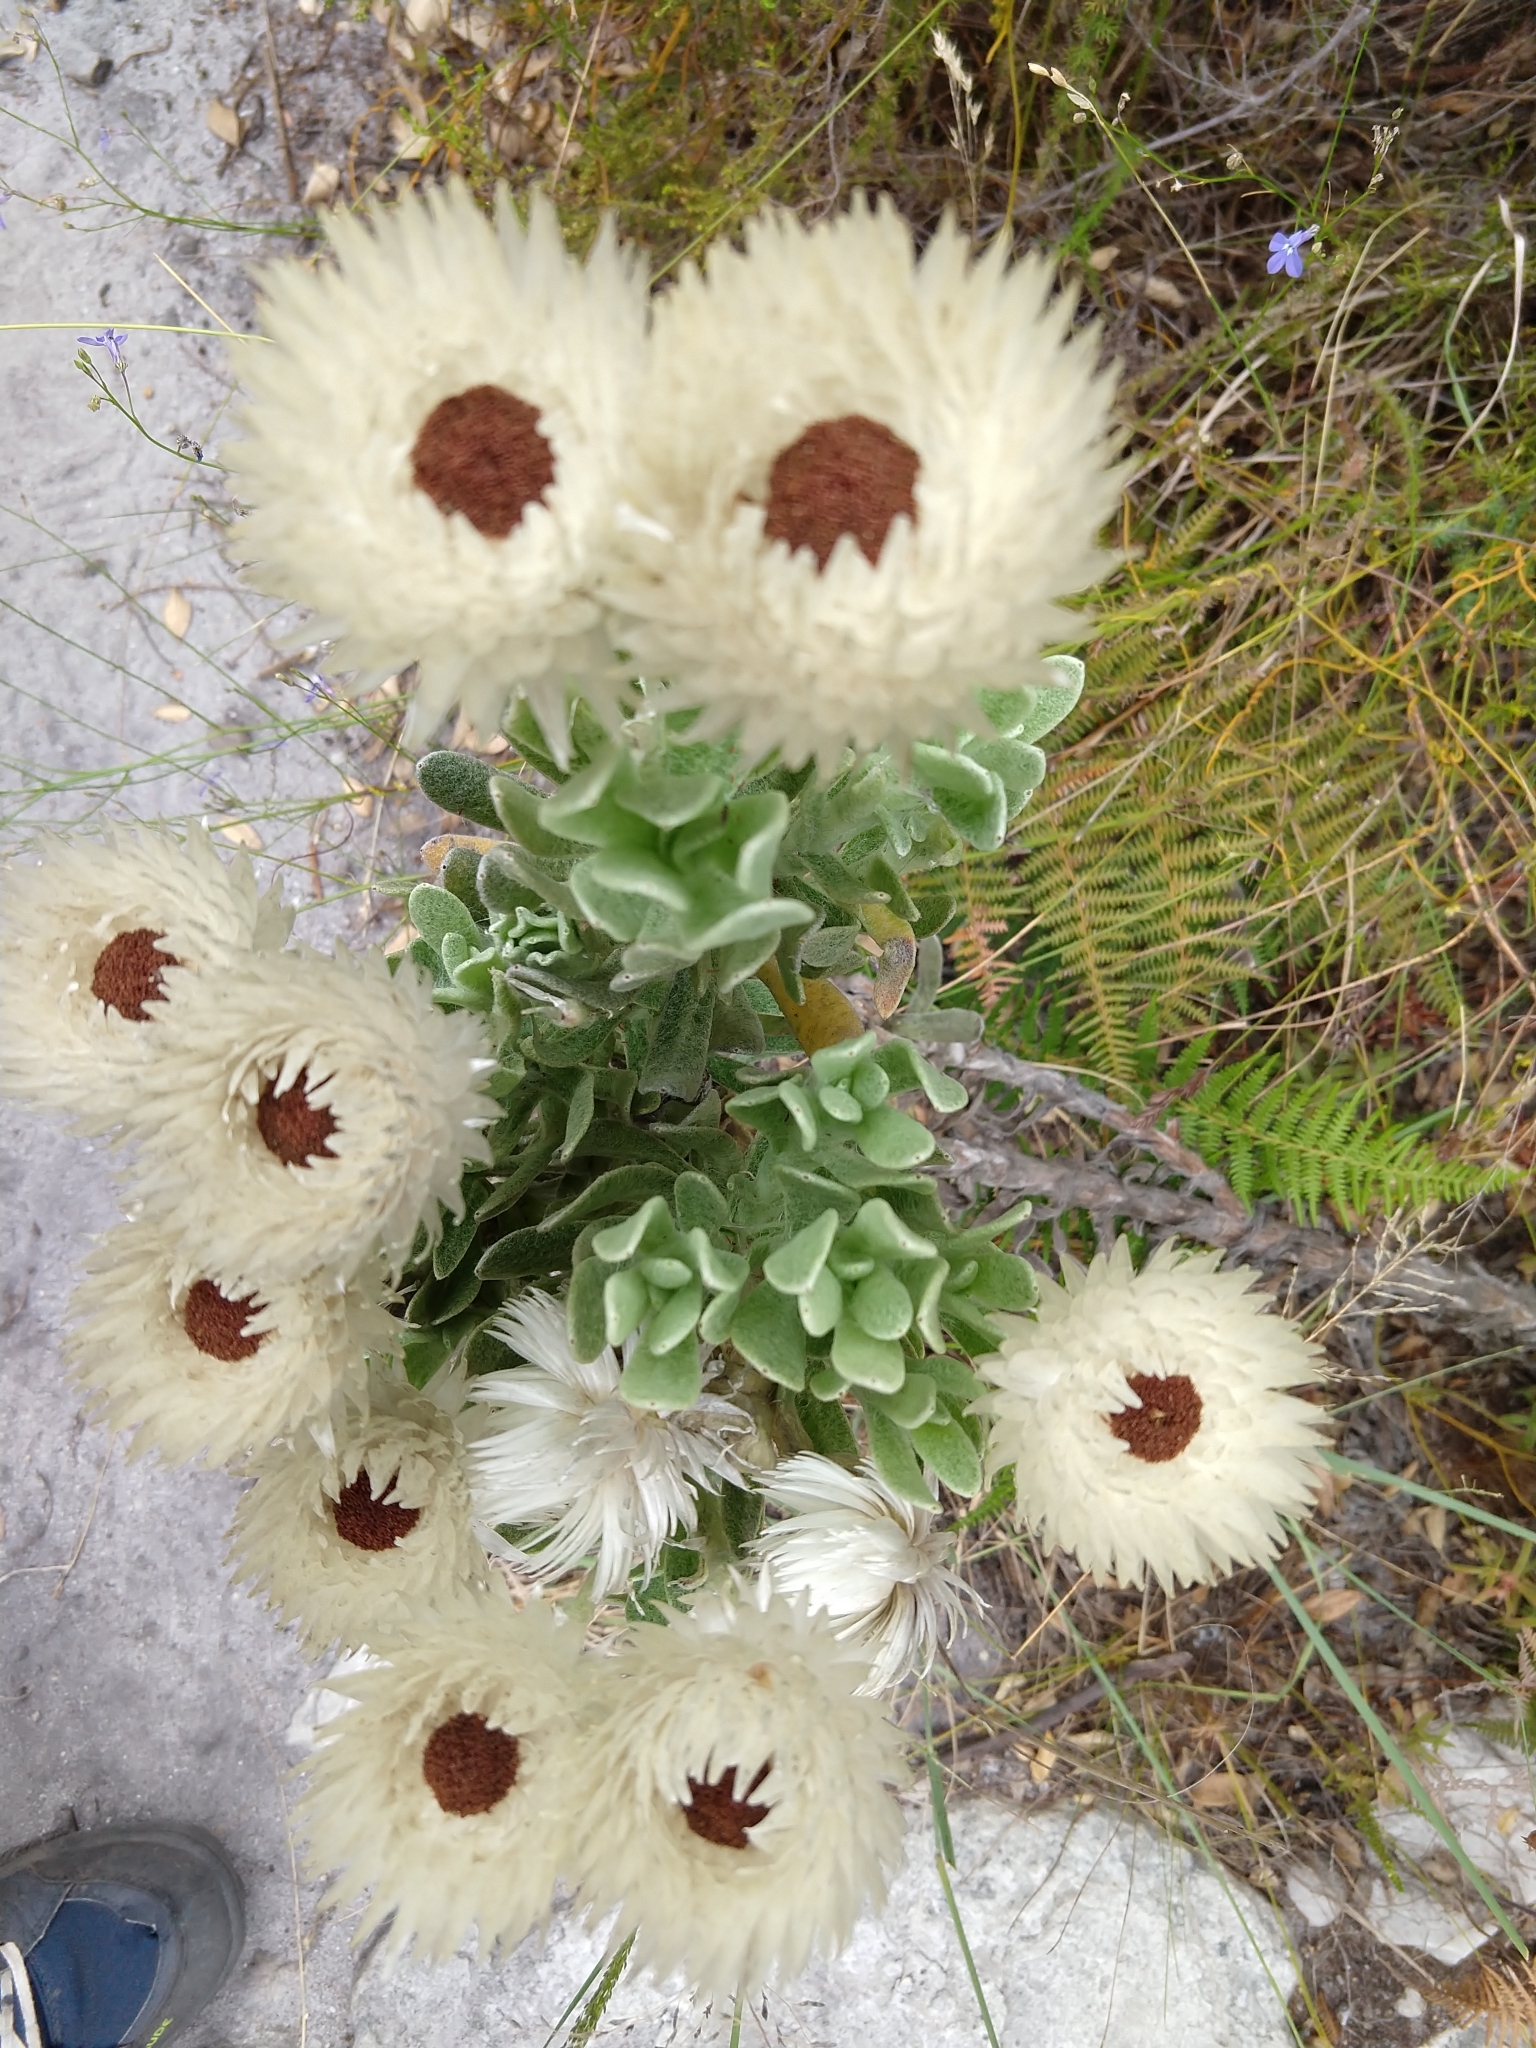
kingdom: Plantae
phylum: Tracheophyta
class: Magnoliopsida
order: Asterales
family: Asteraceae
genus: Syncarpha
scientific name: Syncarpha vestita
